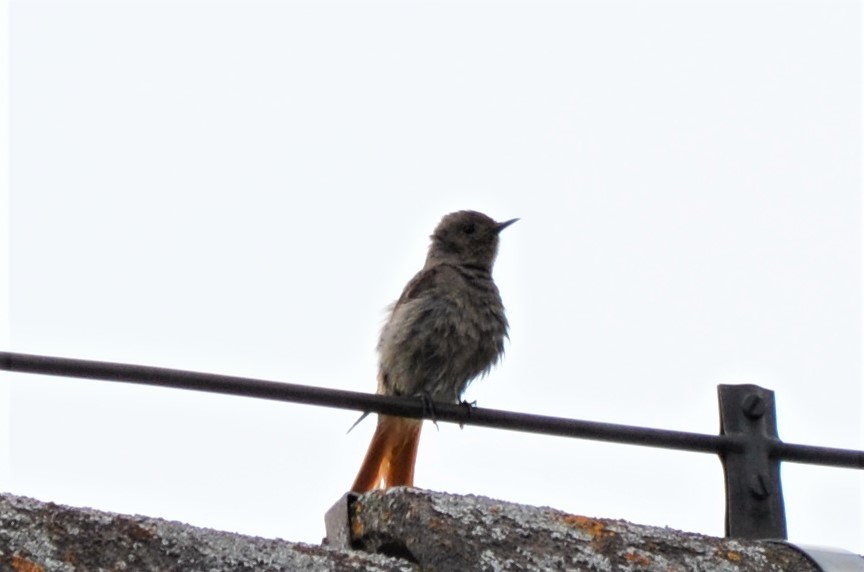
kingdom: Animalia
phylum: Chordata
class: Aves
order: Passeriformes
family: Muscicapidae
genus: Phoenicurus
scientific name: Phoenicurus ochruros
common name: Black redstart
